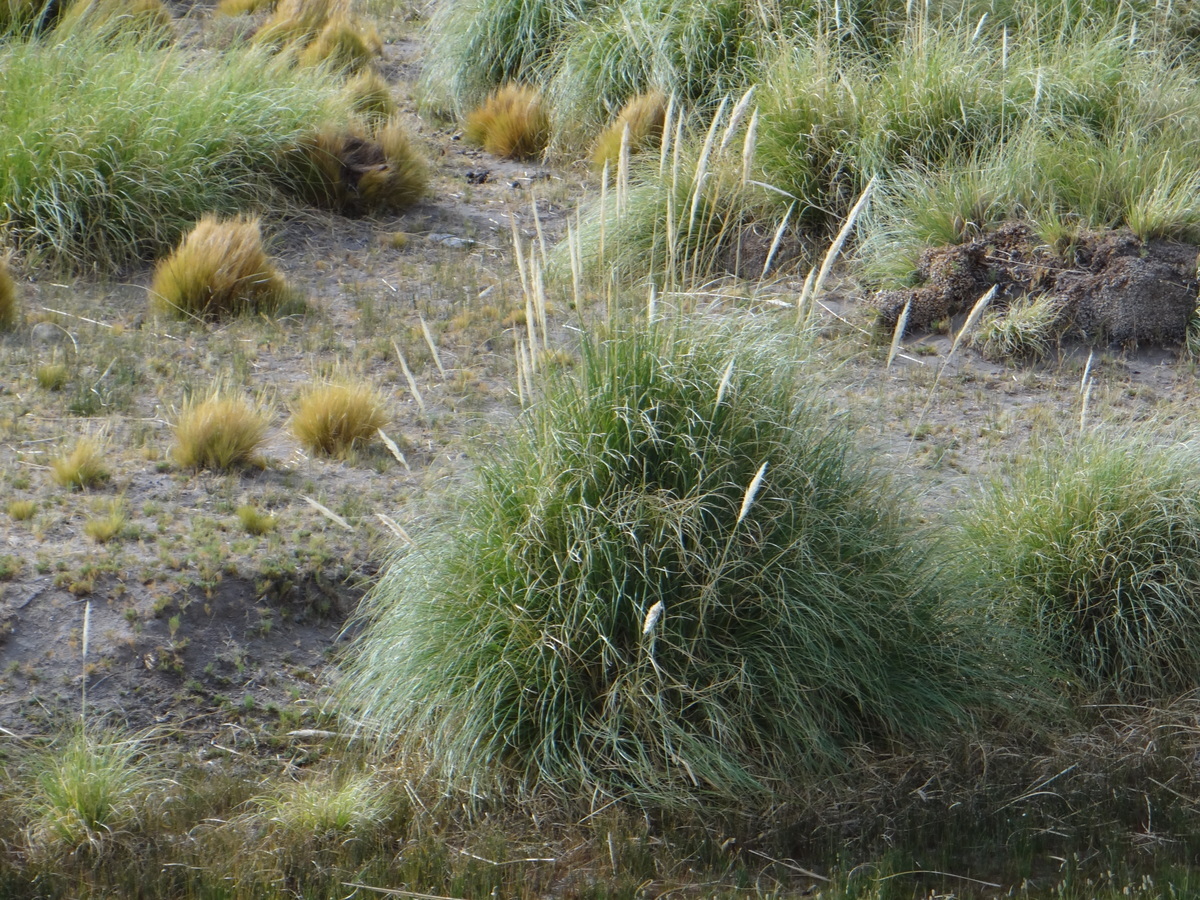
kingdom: Plantae
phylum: Tracheophyta
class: Liliopsida
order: Poales
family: Poaceae
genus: Cortaderia
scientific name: Cortaderia rudiuscula
